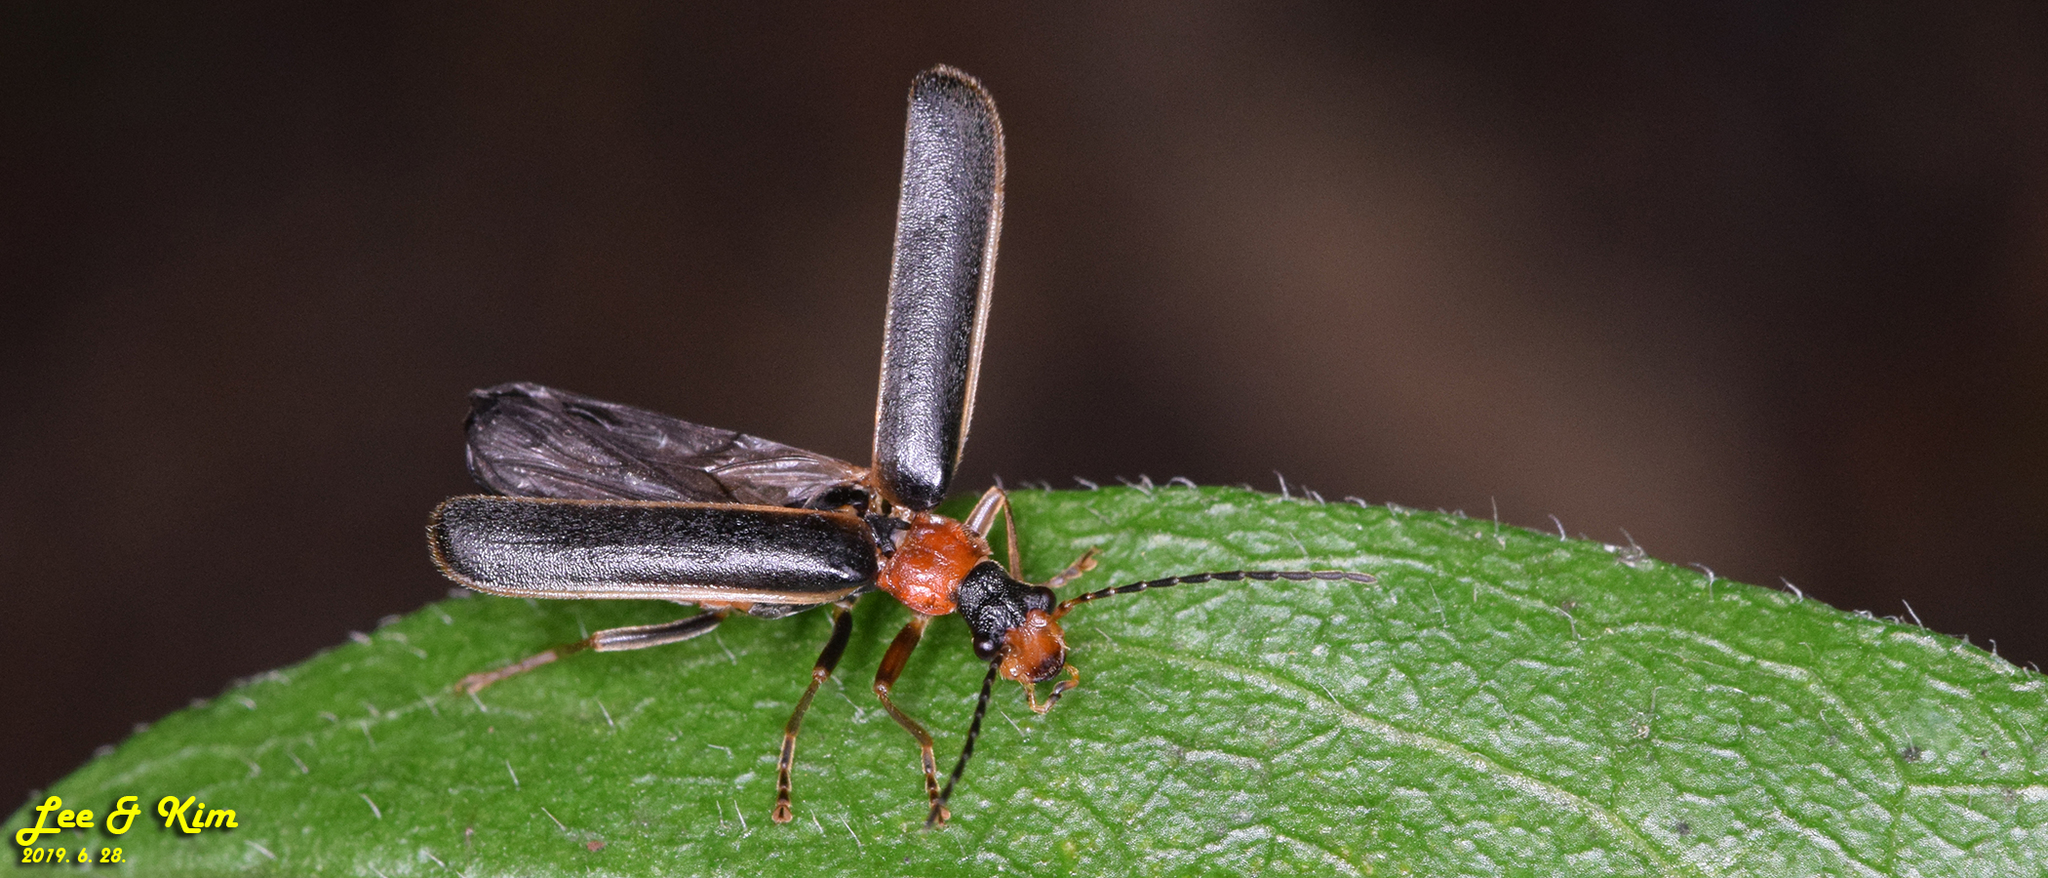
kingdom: Animalia
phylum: Arthropoda
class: Insecta
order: Coleoptera
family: Cantharidae
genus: Hatchiana
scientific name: Hatchiana glochidiatus
